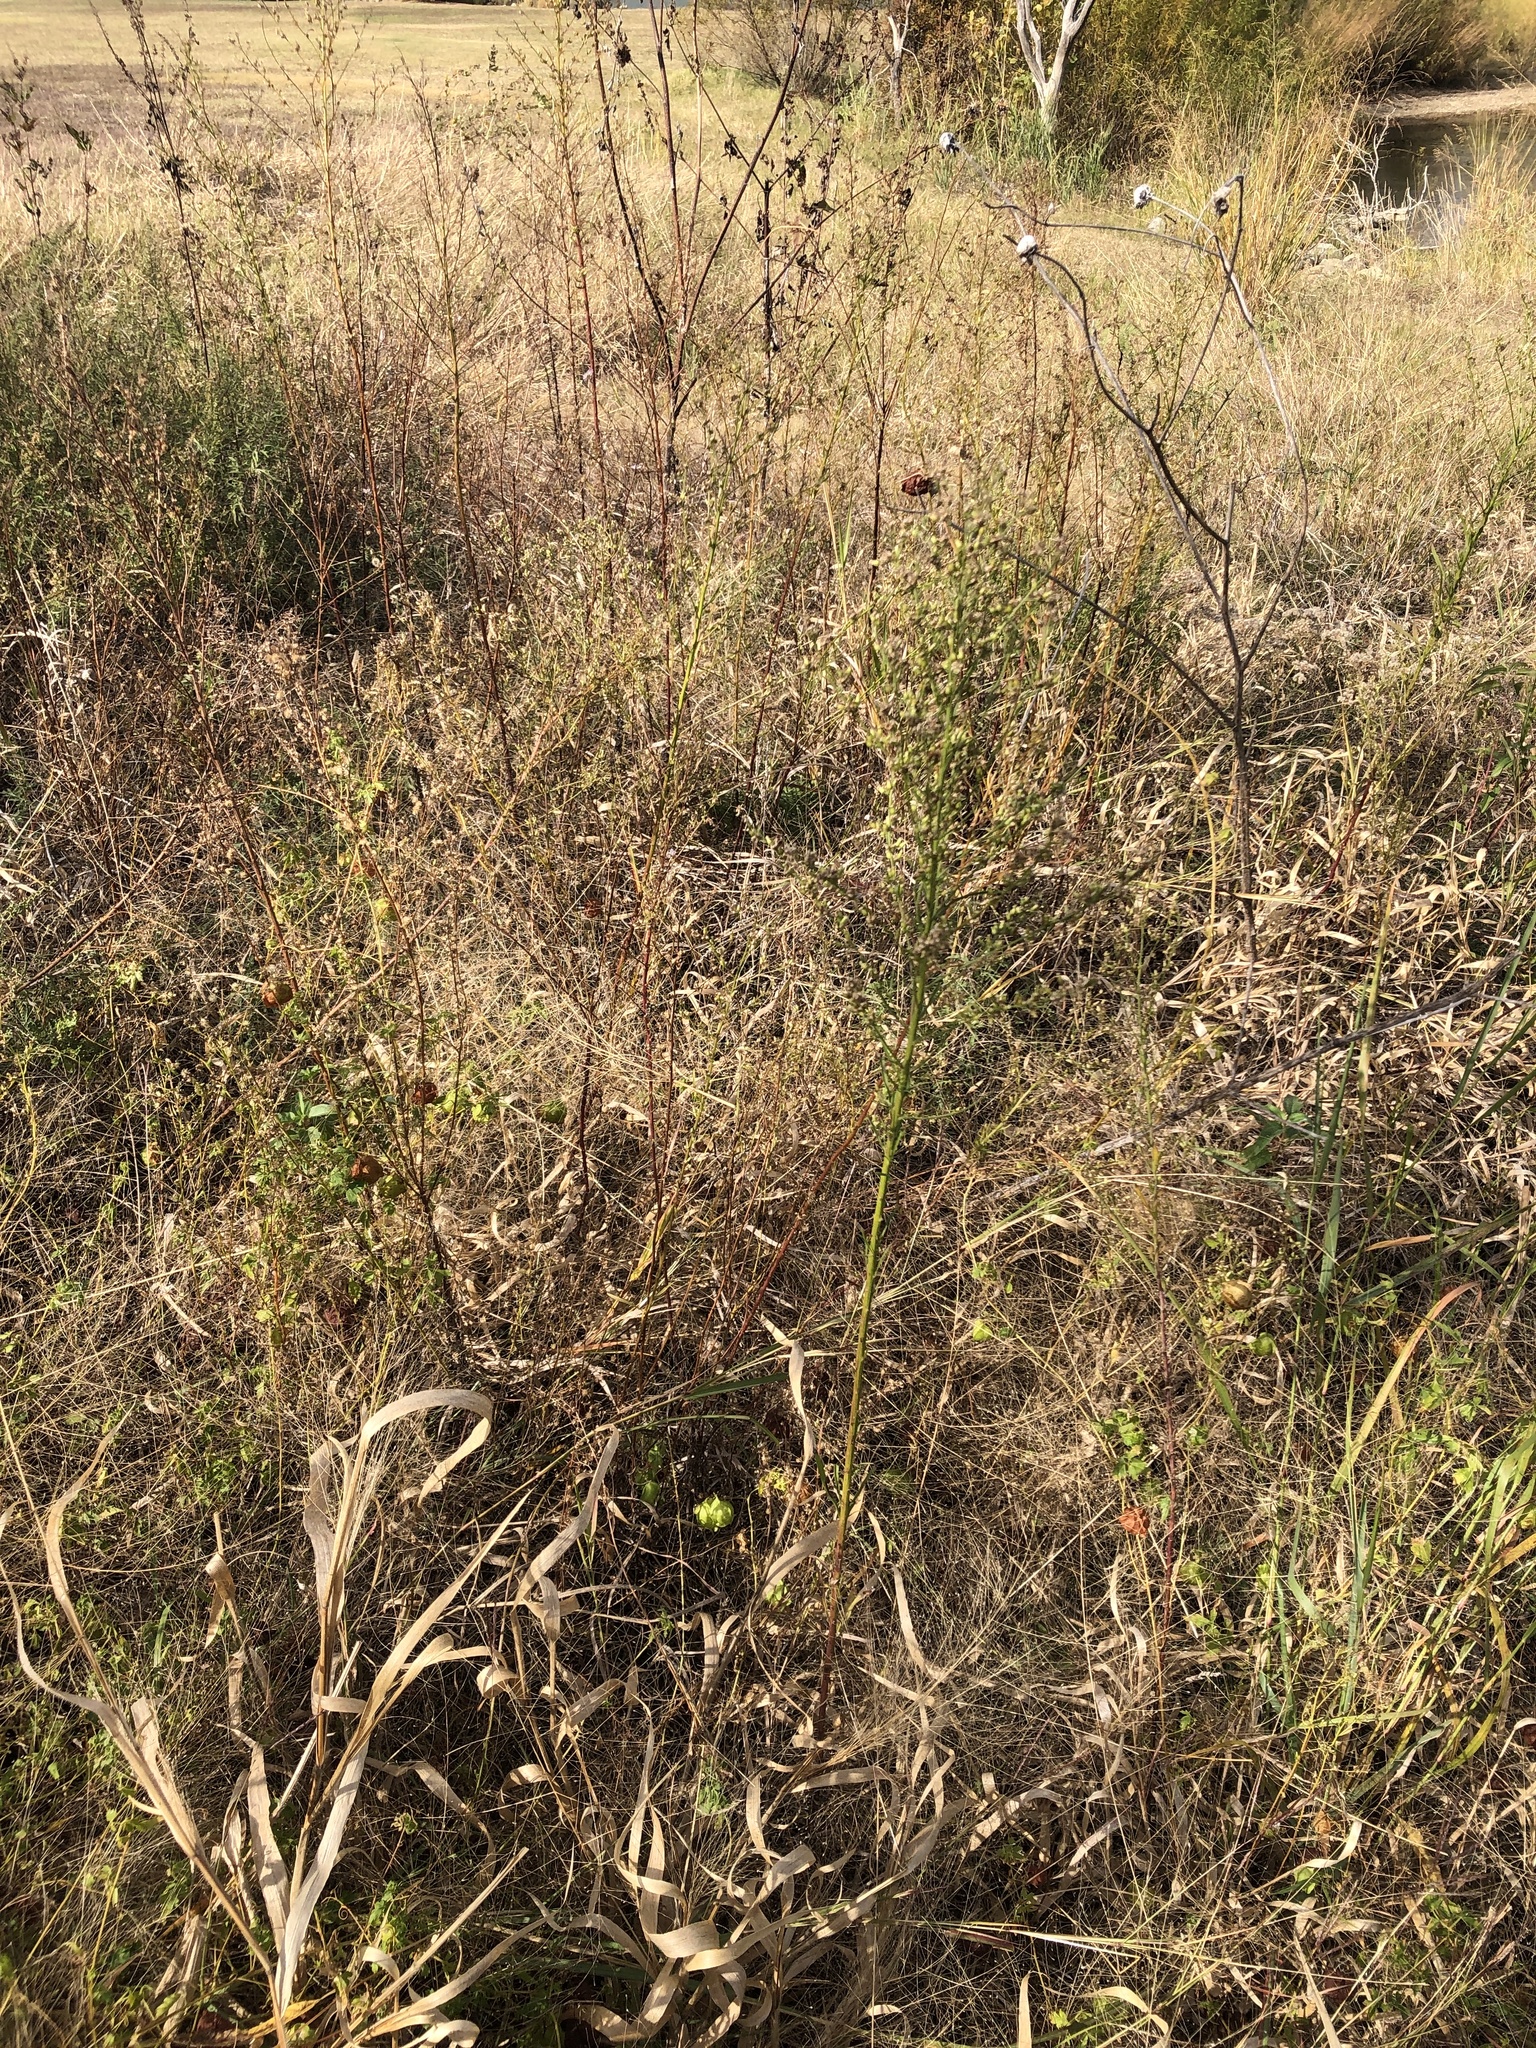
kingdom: Plantae
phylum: Tracheophyta
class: Magnoliopsida
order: Asterales
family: Asteraceae
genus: Erigeron
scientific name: Erigeron canadensis
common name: Canadian fleabane
